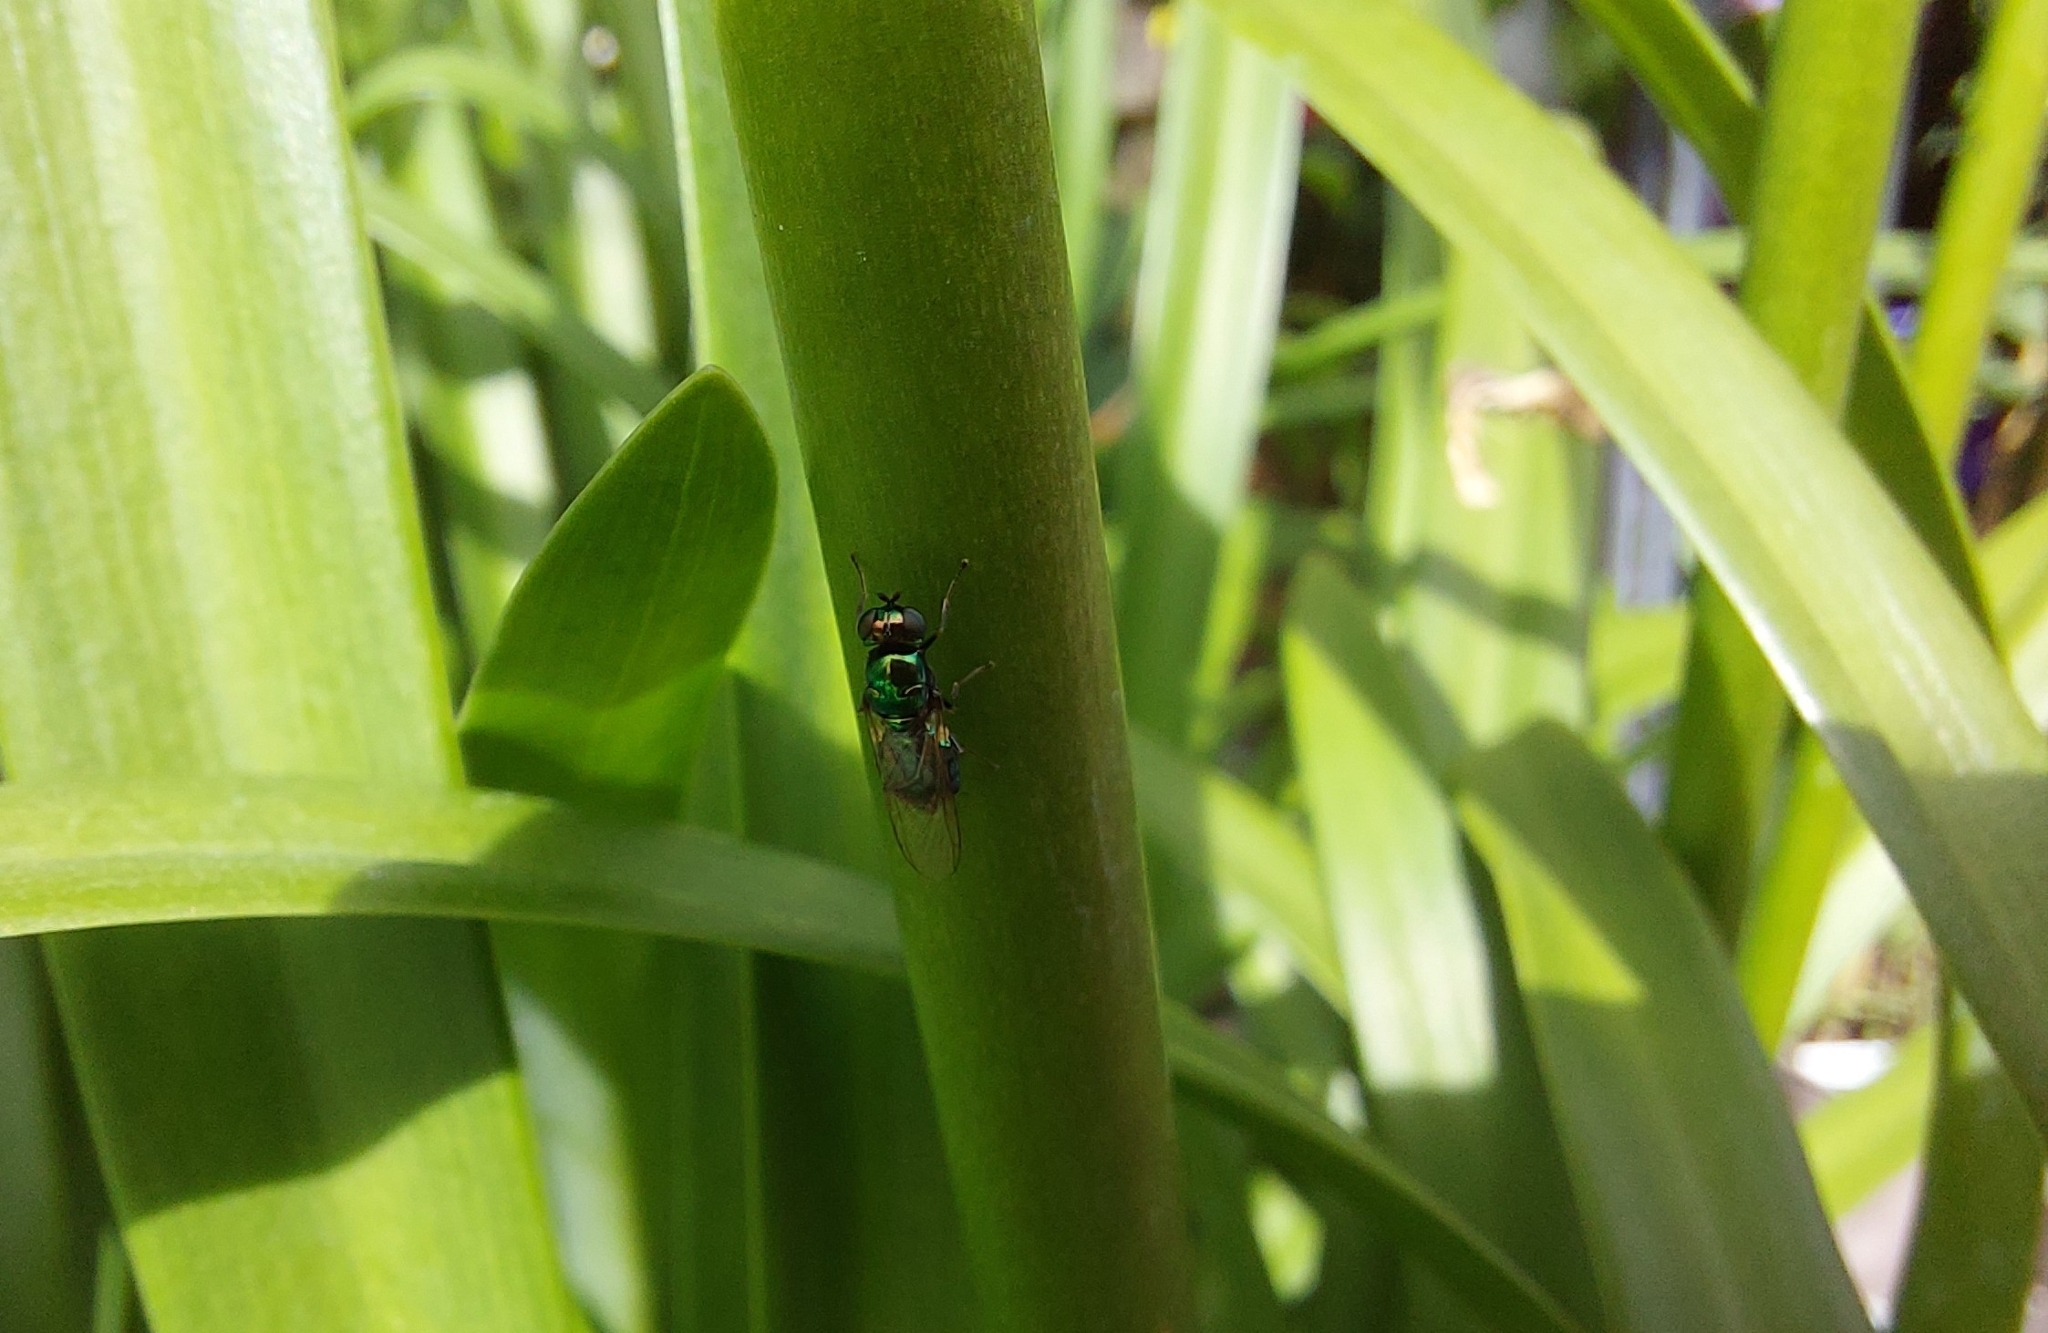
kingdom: Animalia
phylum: Arthropoda
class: Insecta
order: Diptera
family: Stratiomyidae
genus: Microchrysa
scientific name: Microchrysa polita
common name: Black-horned gem
